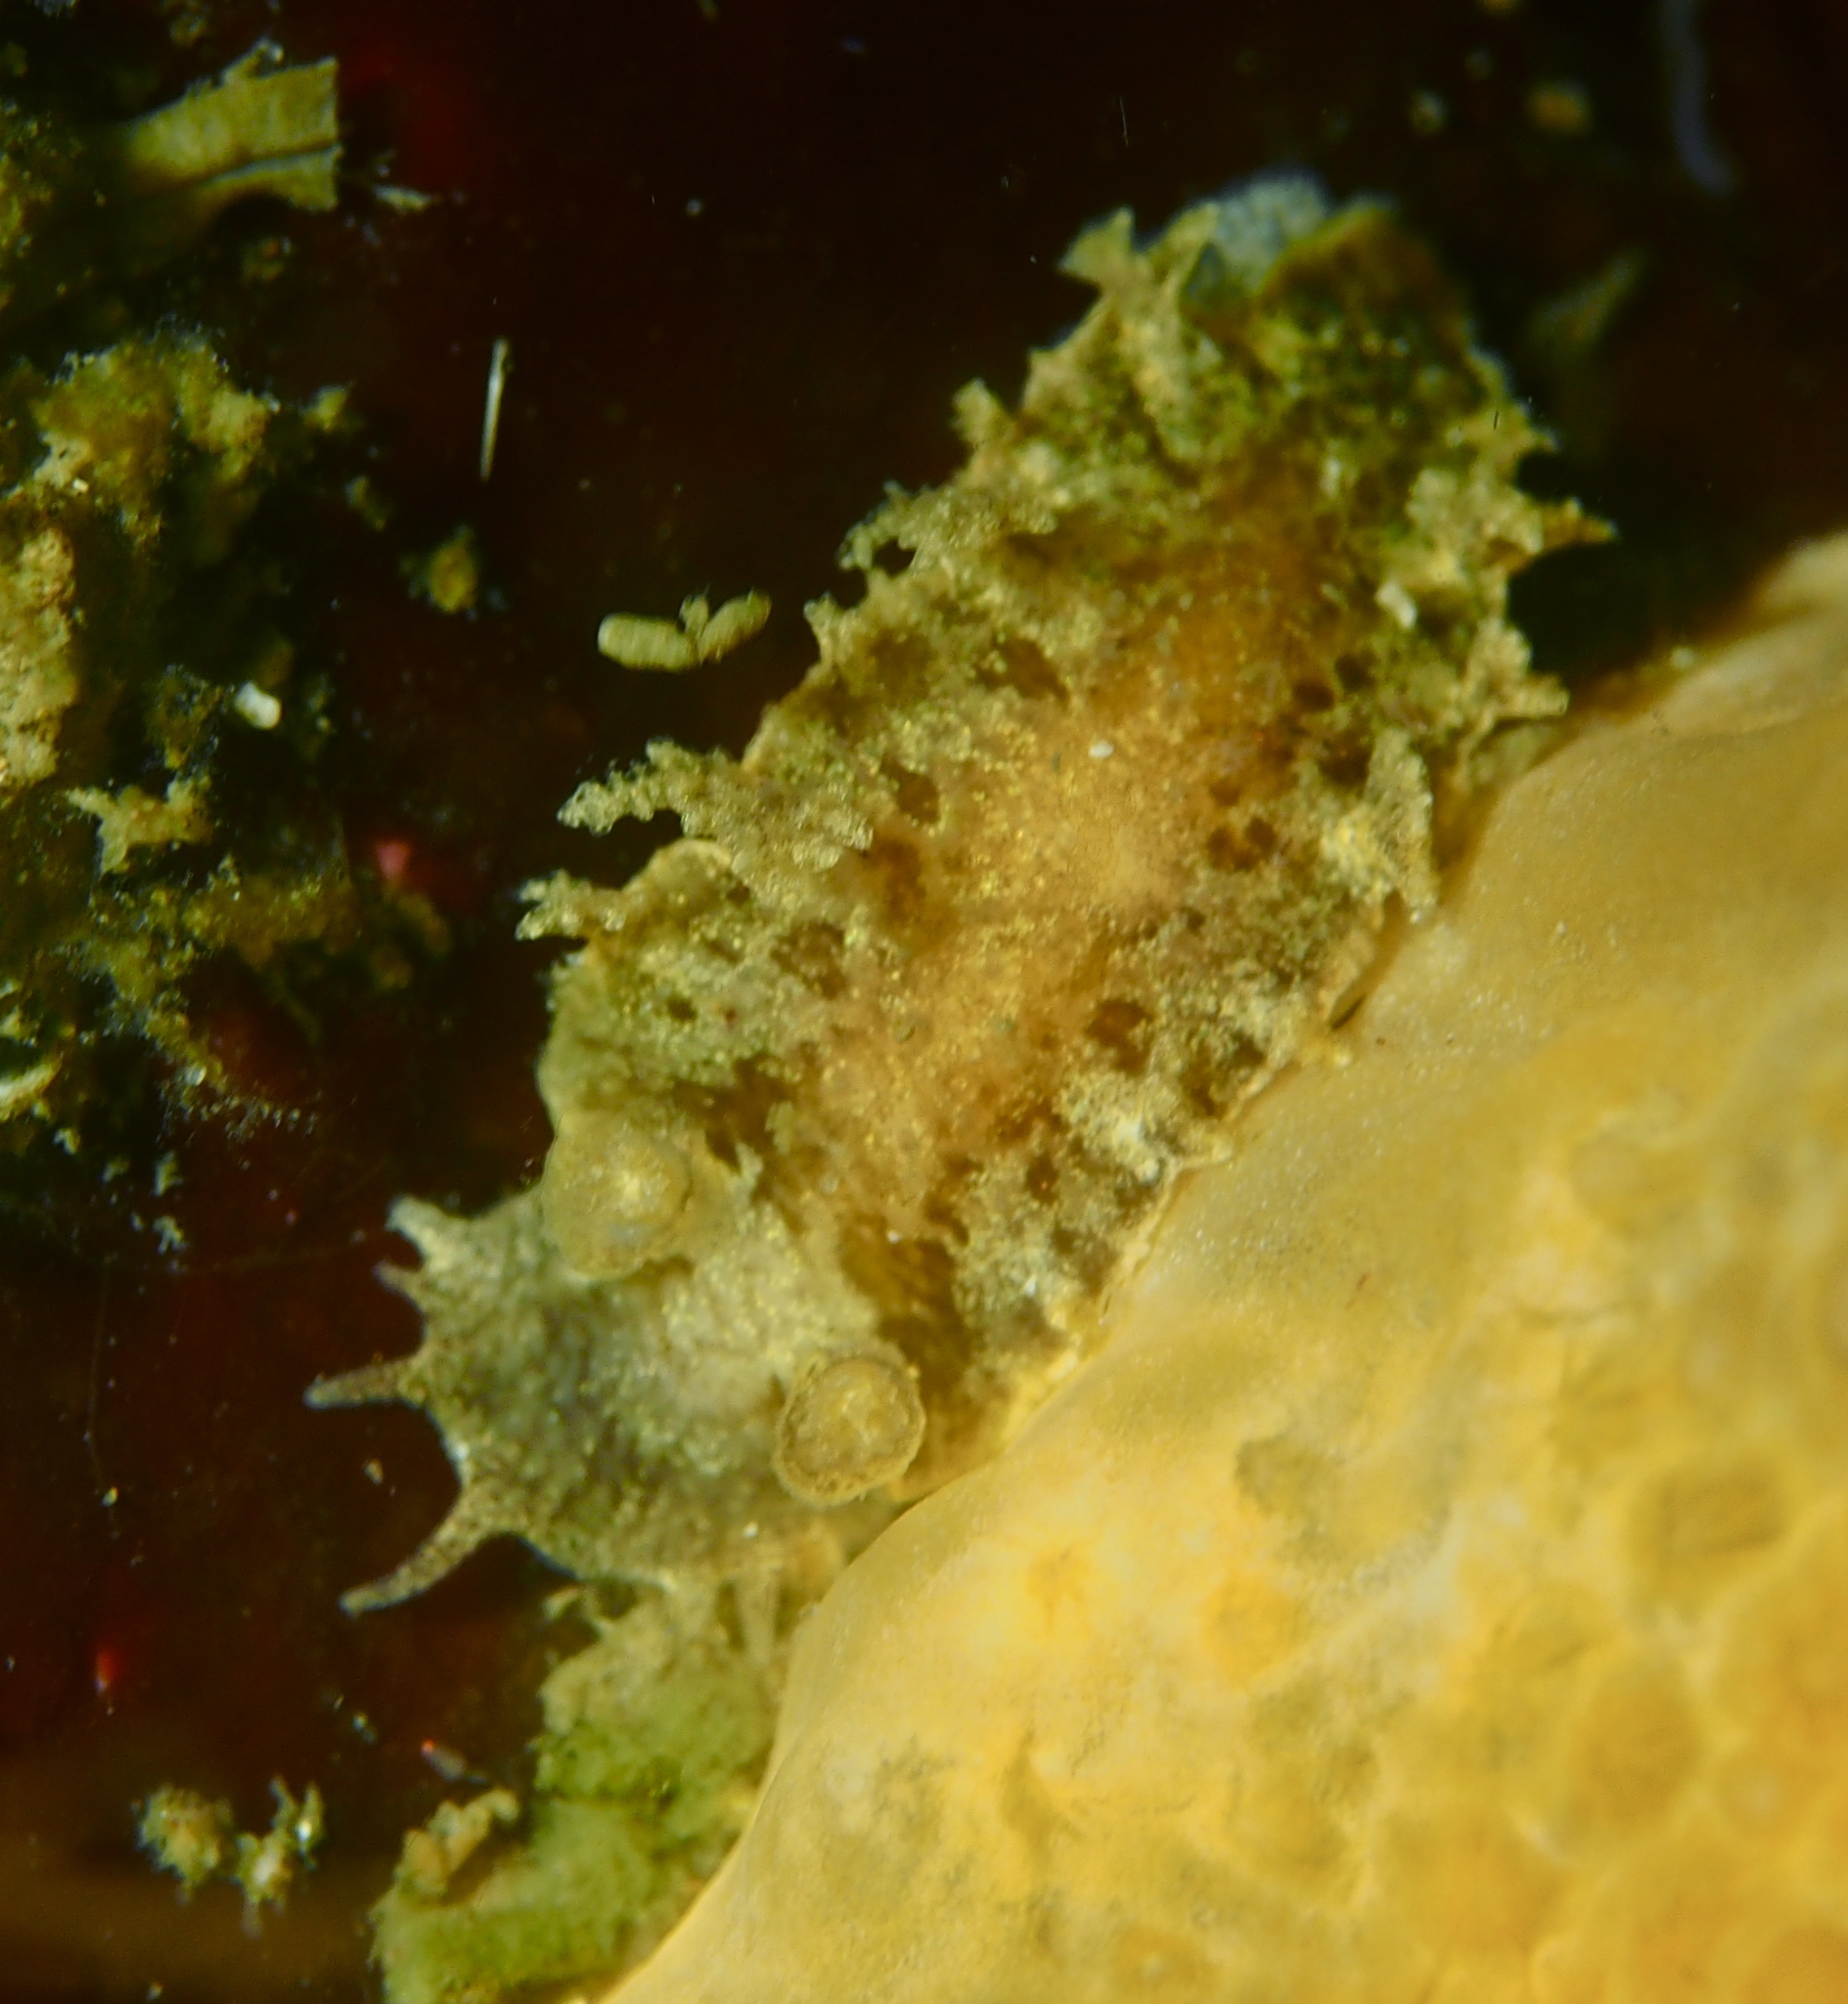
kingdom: Animalia
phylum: Mollusca
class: Gastropoda
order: Nudibranchia
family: Tritoniidae
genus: Duvaucelia
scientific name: Duvaucelia plebeia
